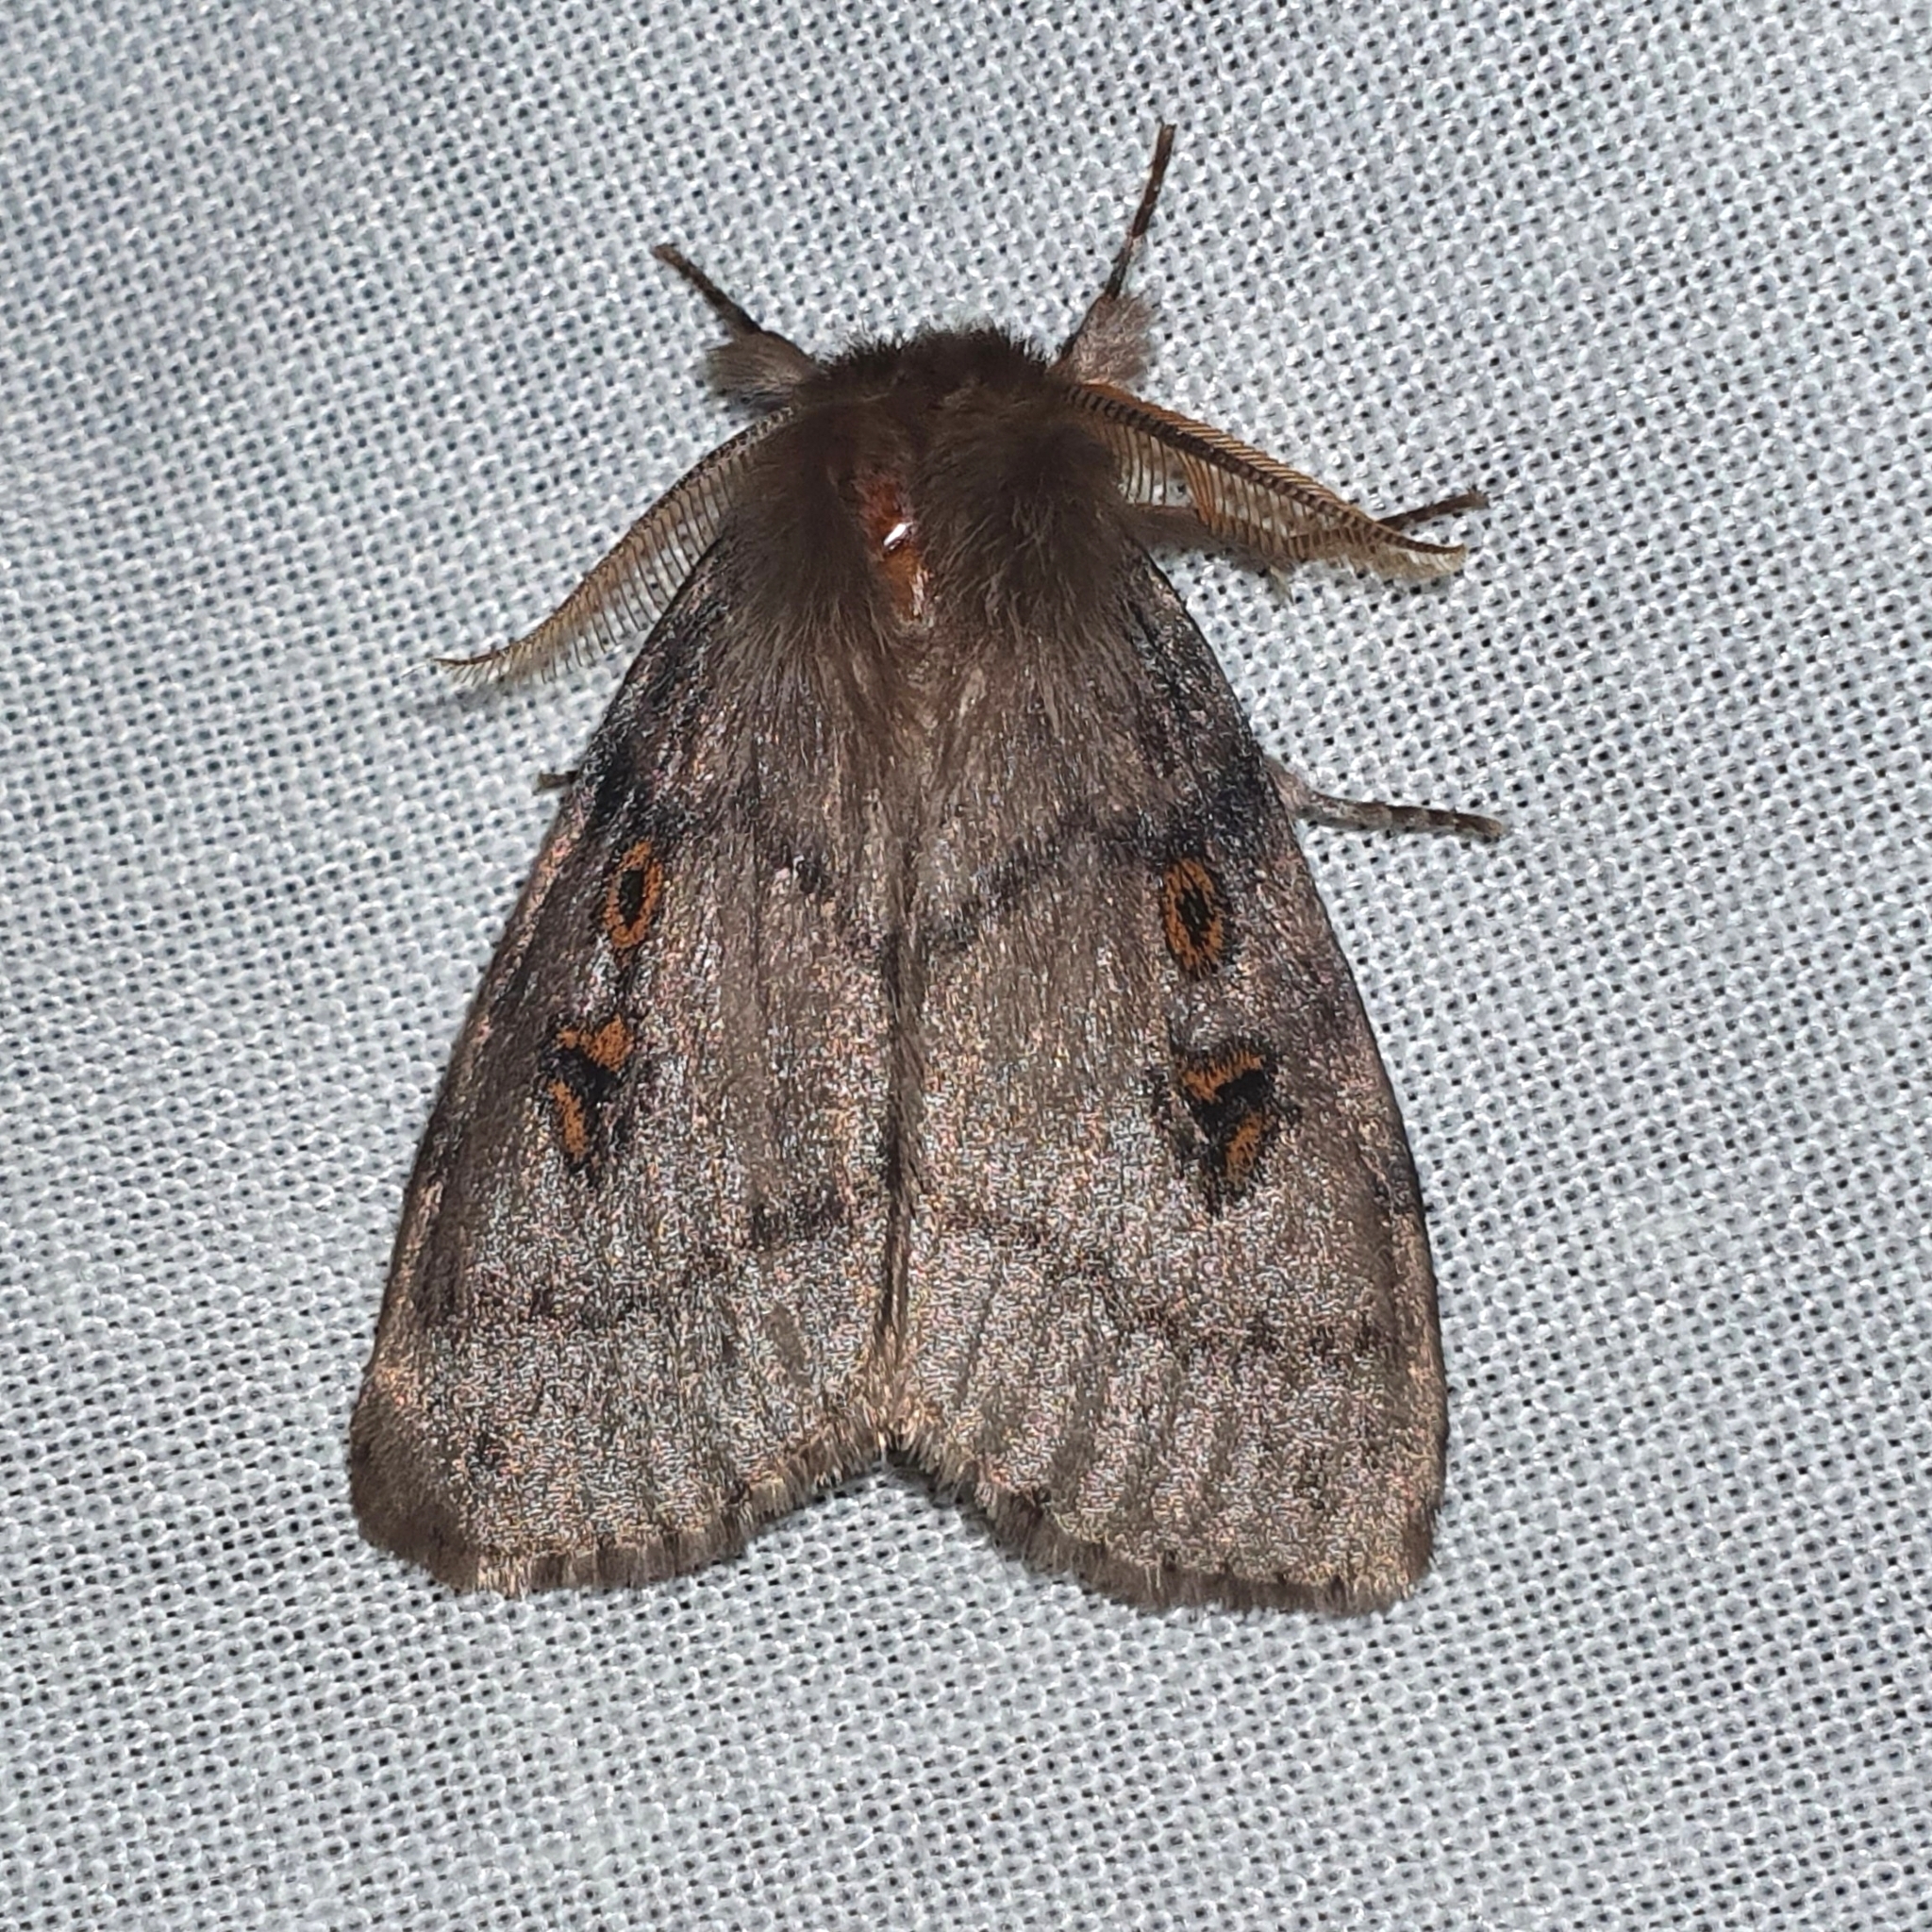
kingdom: Animalia
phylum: Arthropoda
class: Insecta
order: Lepidoptera
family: Erebidae
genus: Leptocneria
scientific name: Leptocneria reducta
